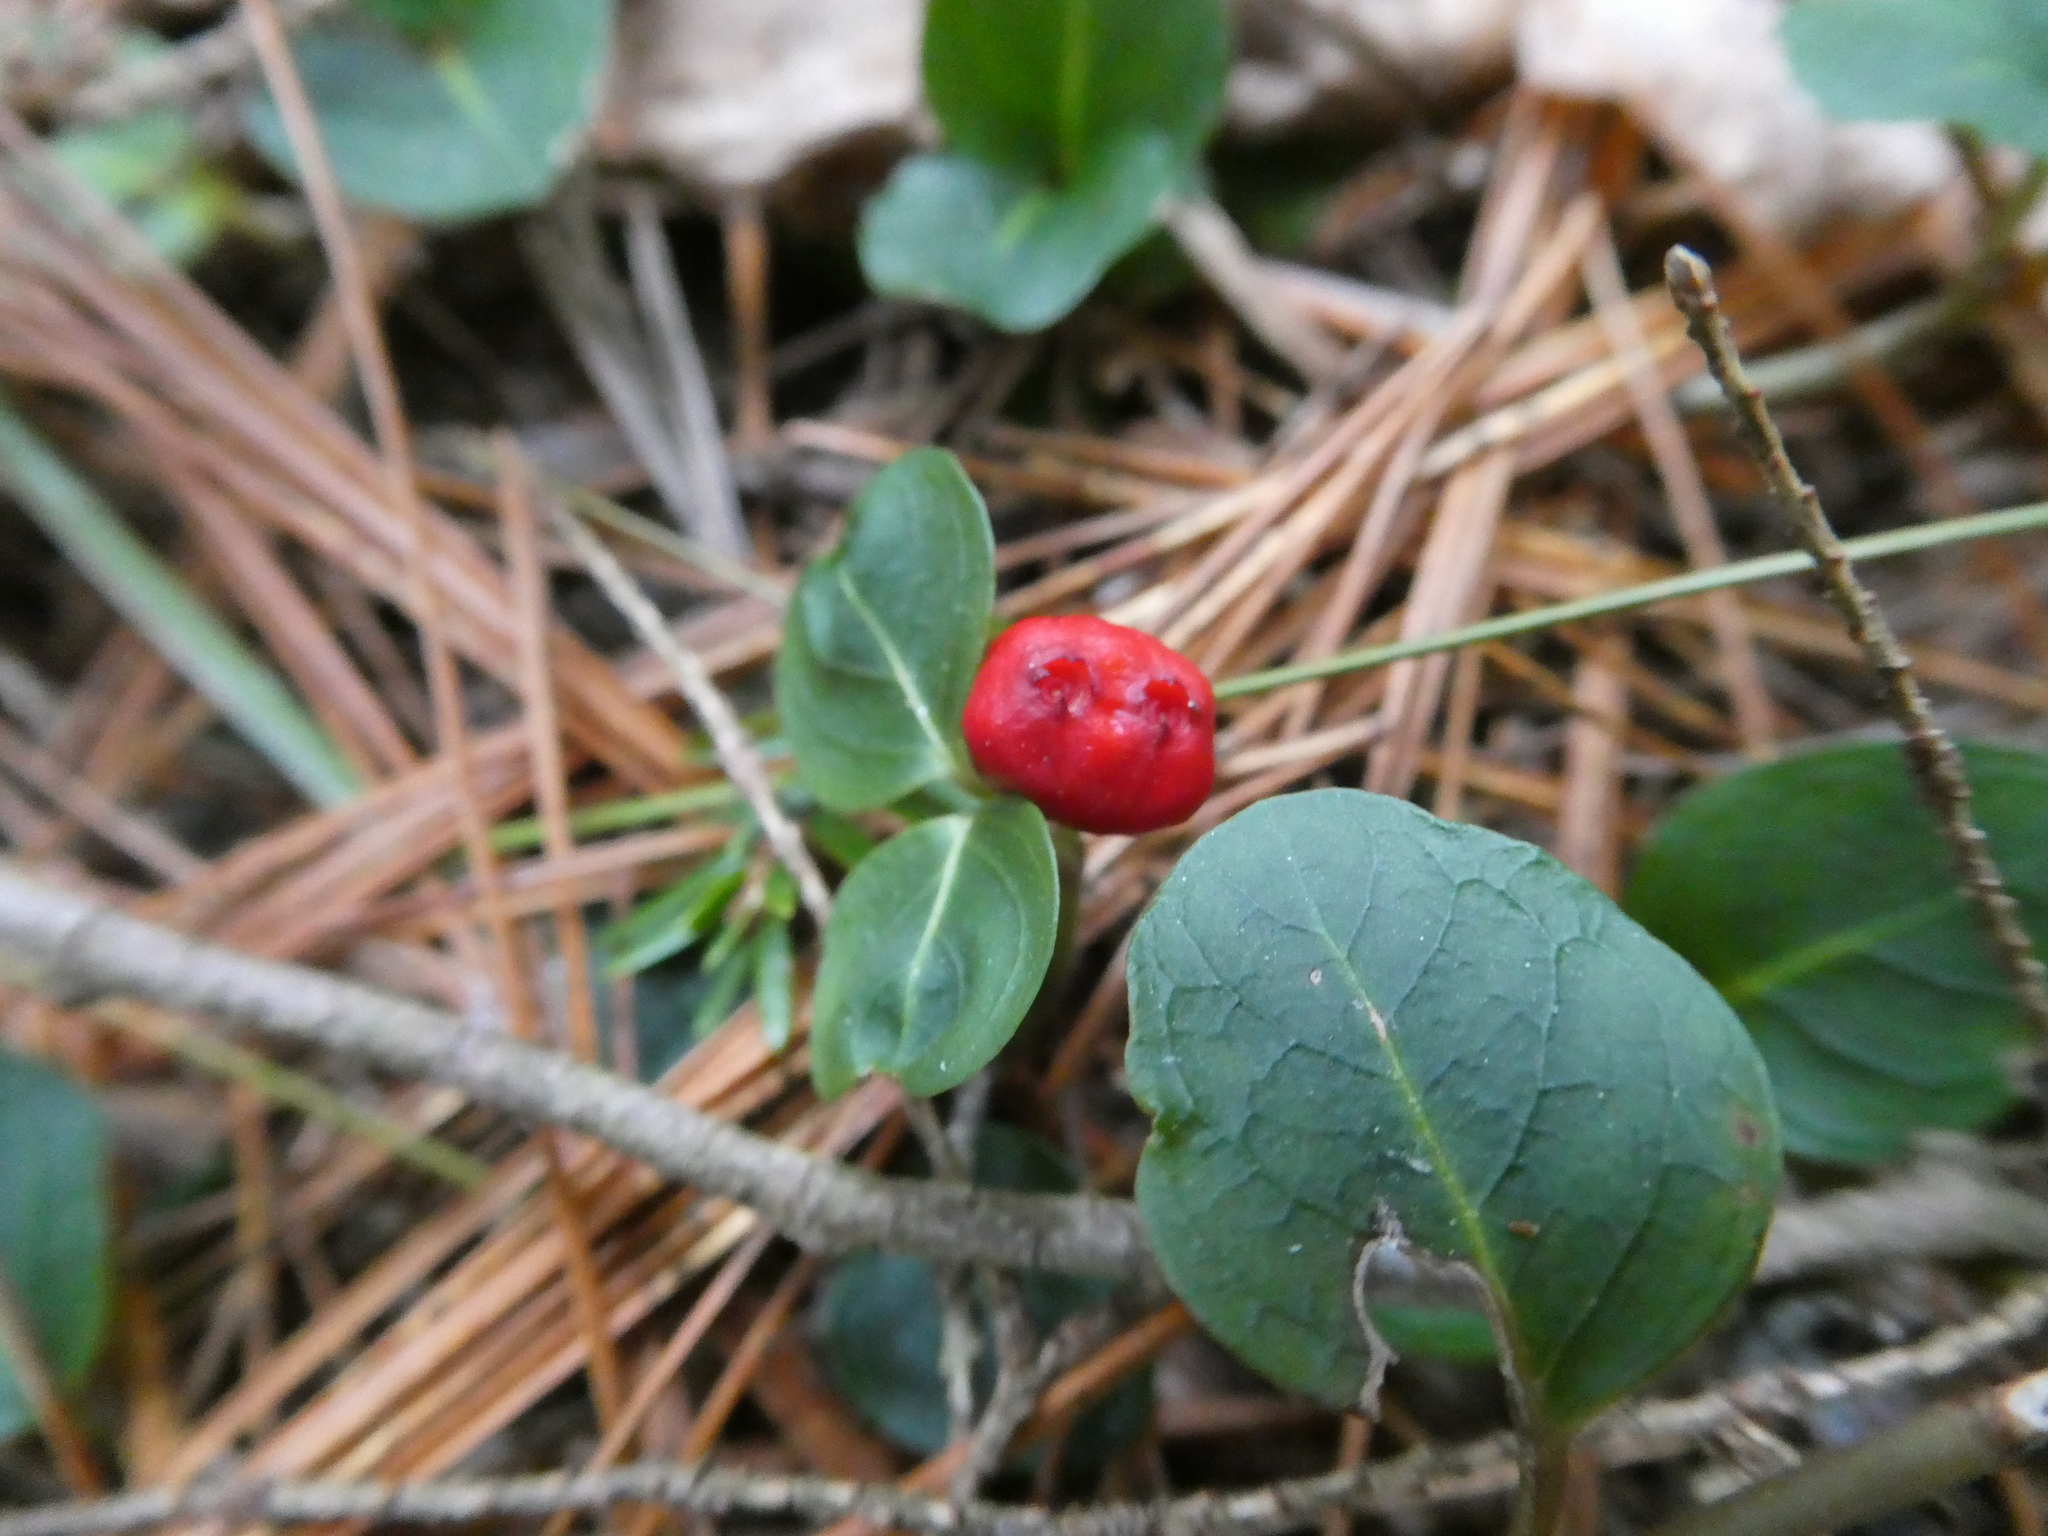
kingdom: Plantae
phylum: Tracheophyta
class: Magnoliopsida
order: Gentianales
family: Rubiaceae
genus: Mitchella
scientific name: Mitchella repens
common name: Partridge-berry
